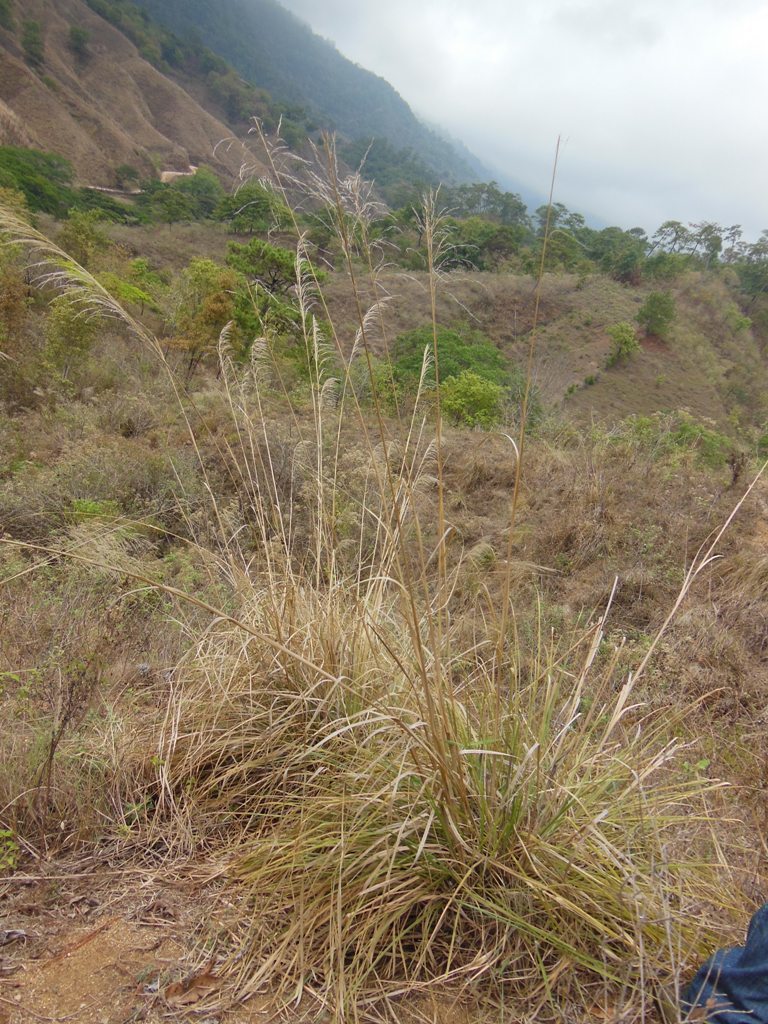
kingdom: Plantae
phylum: Tracheophyta
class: Liliopsida
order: Poales
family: Poaceae
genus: Muhlenbergia
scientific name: Muhlenbergia gigantea
